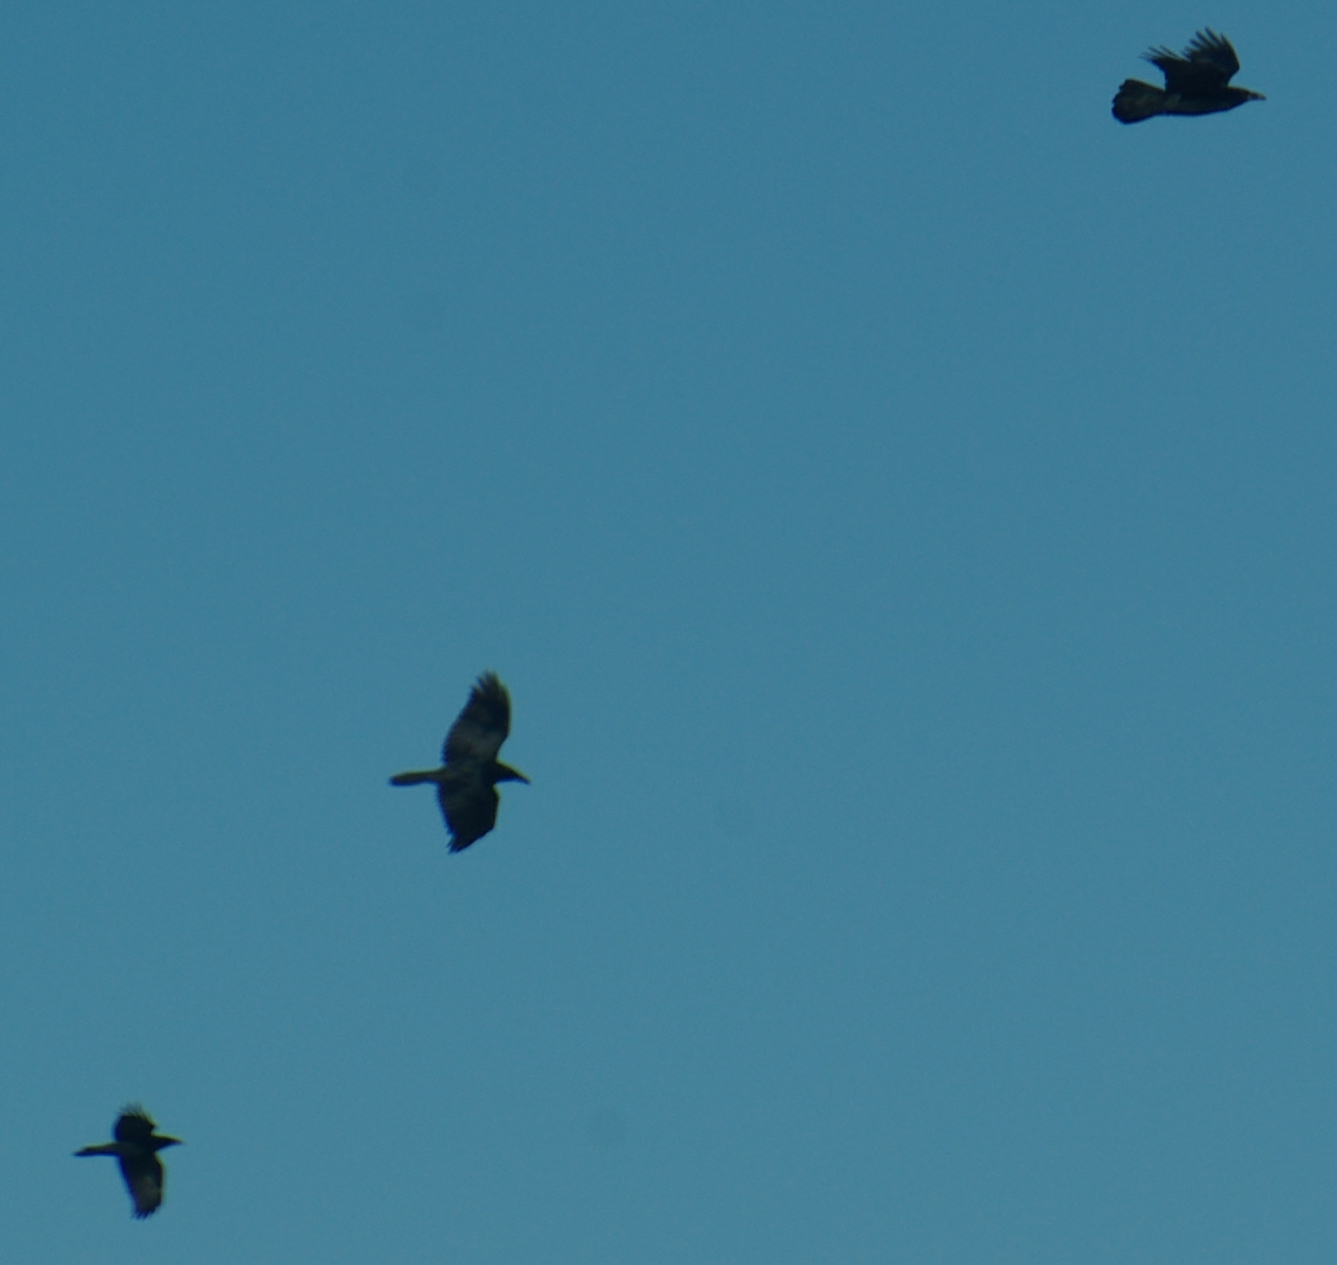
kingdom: Animalia
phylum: Chordata
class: Aves
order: Passeriformes
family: Corvidae
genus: Corvus
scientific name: Corvus corax
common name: Common raven
